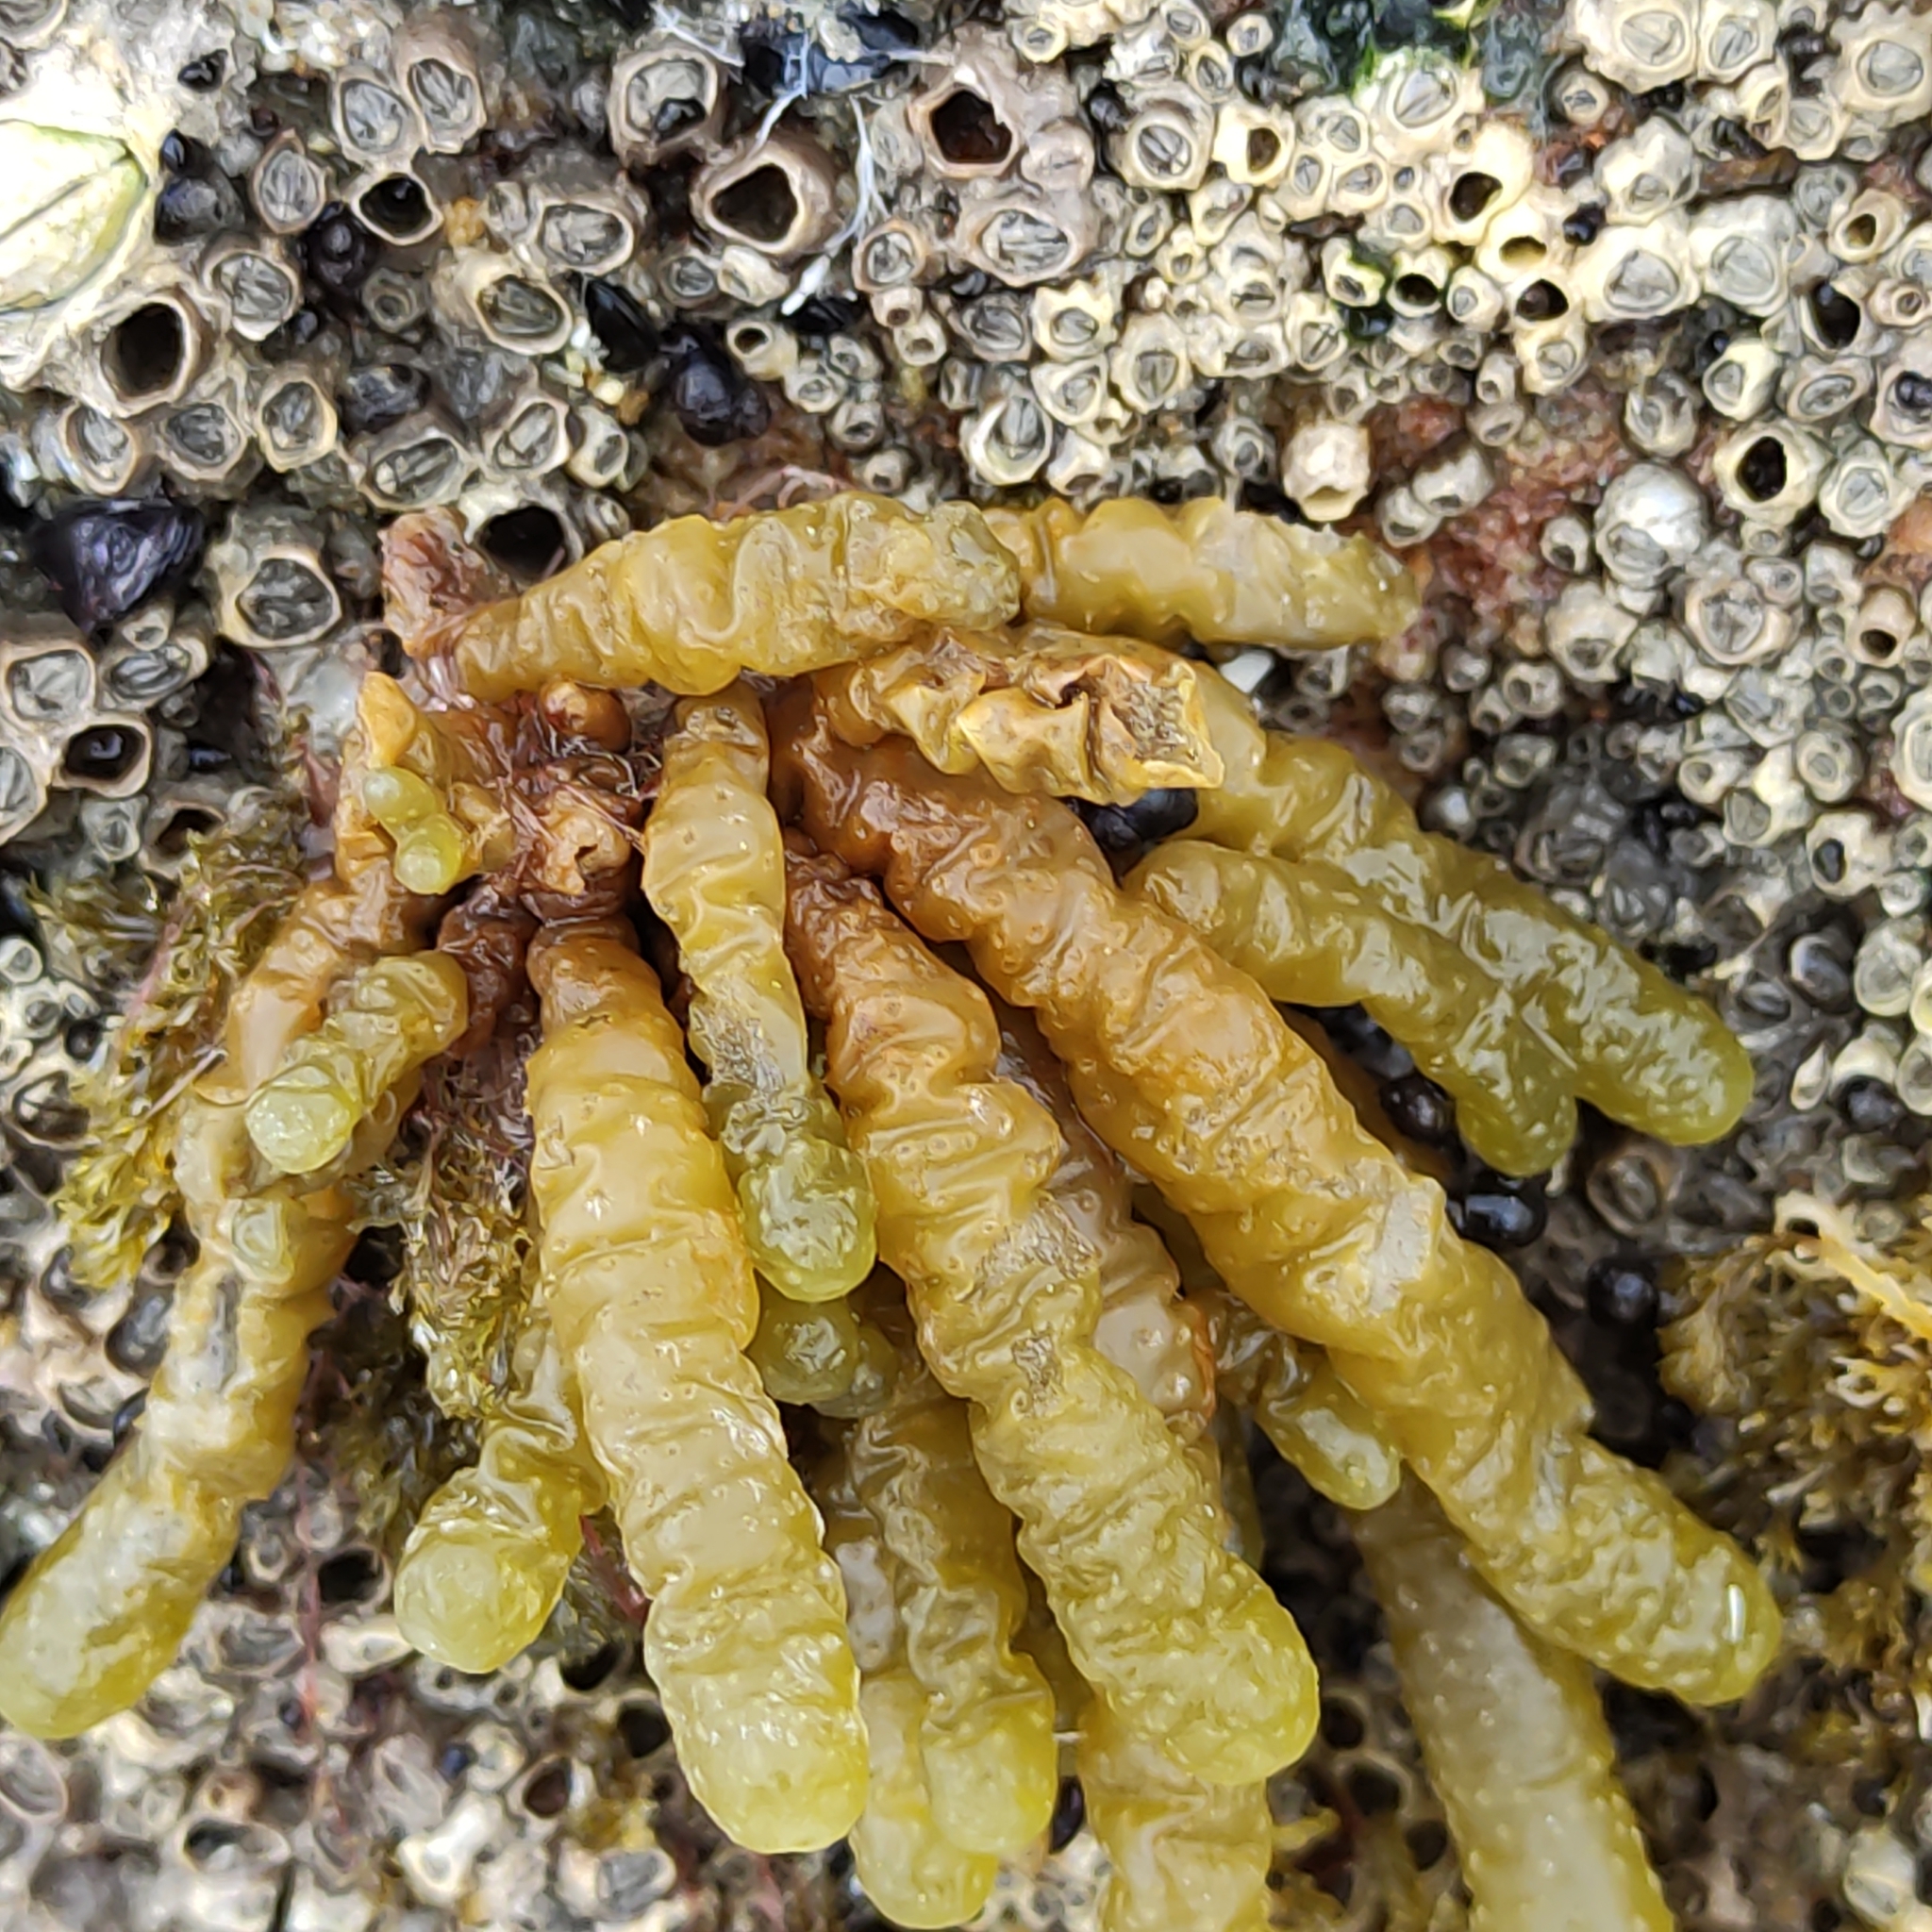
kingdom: Chromista
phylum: Ochrophyta
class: Phaeophyceae
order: Scytothamnales
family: Splachnidiaceae
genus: Splachnidium
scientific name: Splachnidium rugosum
